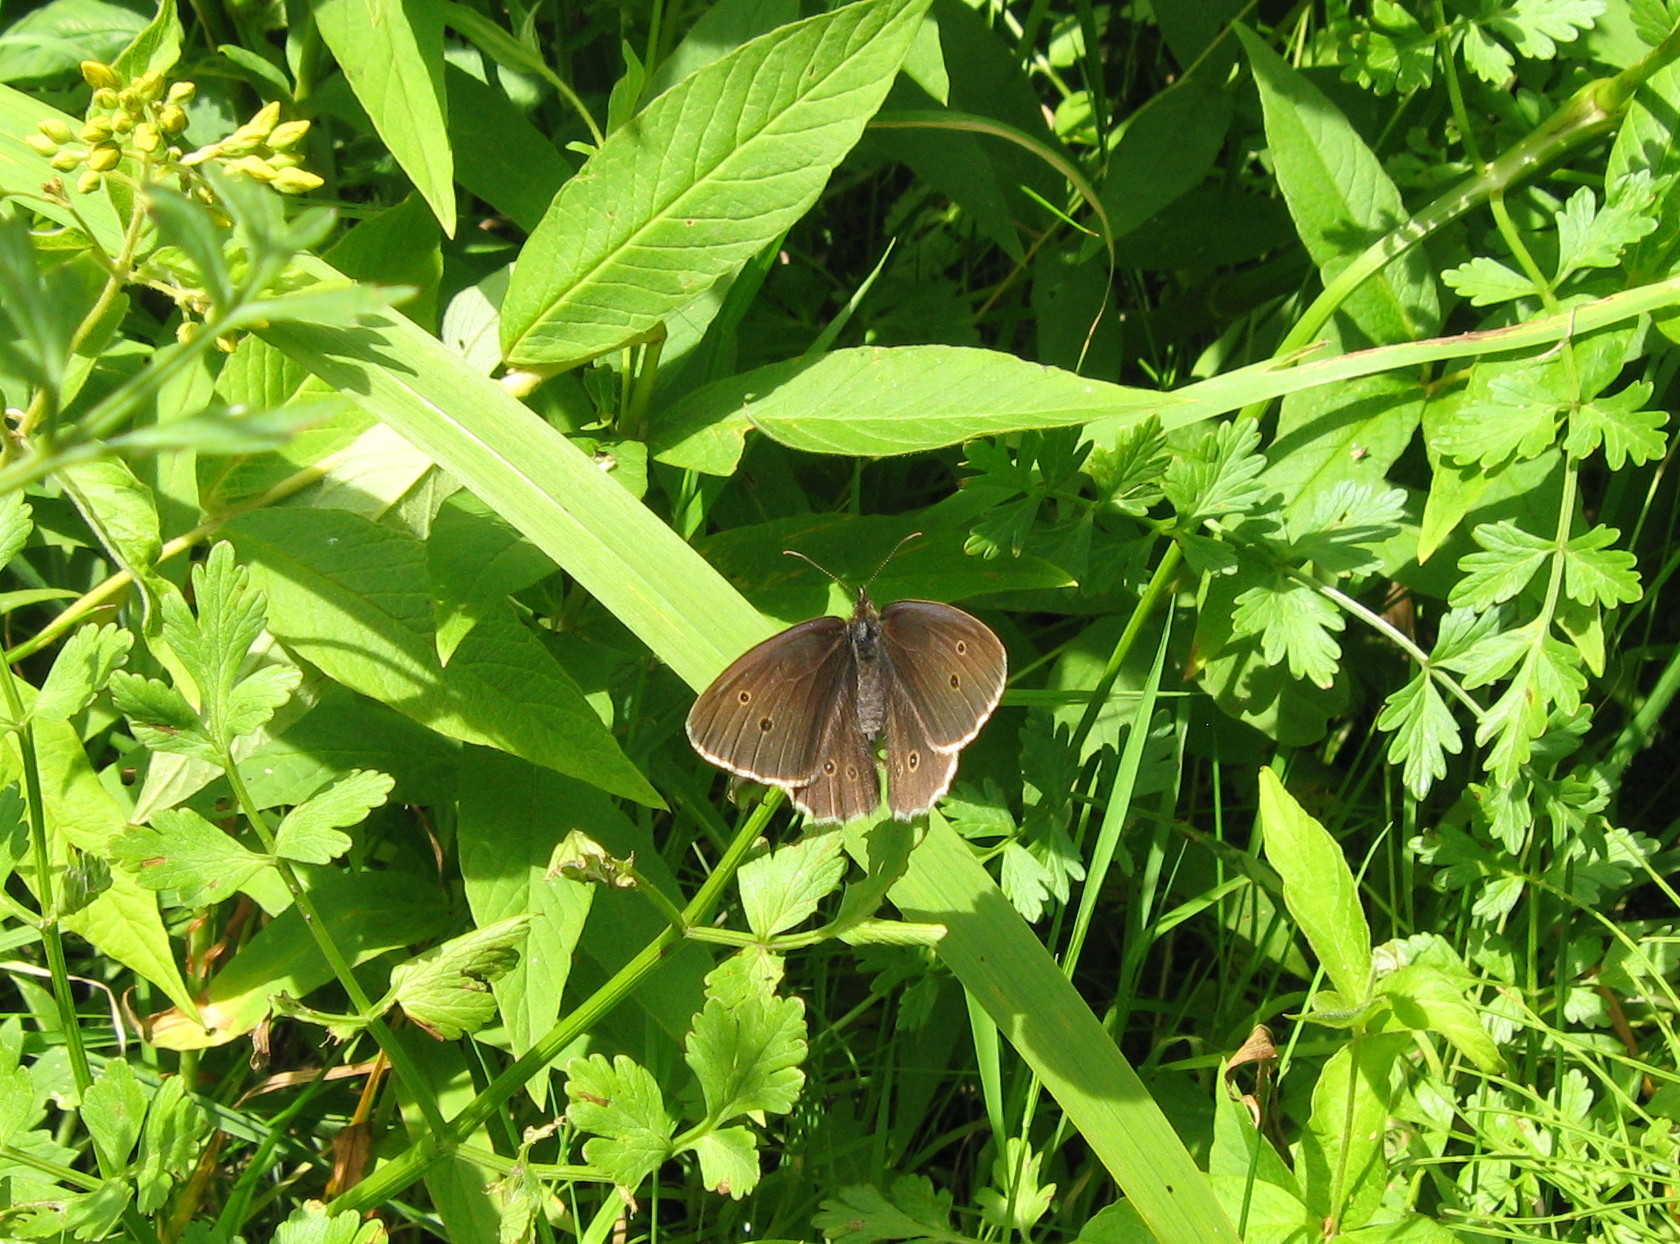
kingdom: Animalia
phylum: Arthropoda
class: Insecta
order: Lepidoptera
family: Nymphalidae
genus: Aphantopus
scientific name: Aphantopus hyperantus
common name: Ringlet
